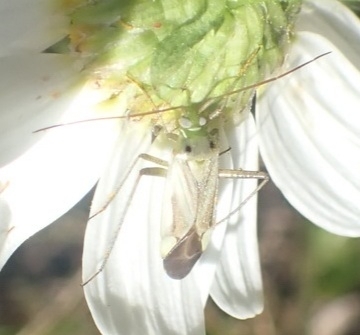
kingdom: Animalia
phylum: Arthropoda
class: Insecta
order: Hemiptera
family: Miridae
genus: Adelphocoris
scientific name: Adelphocoris lineolatus
